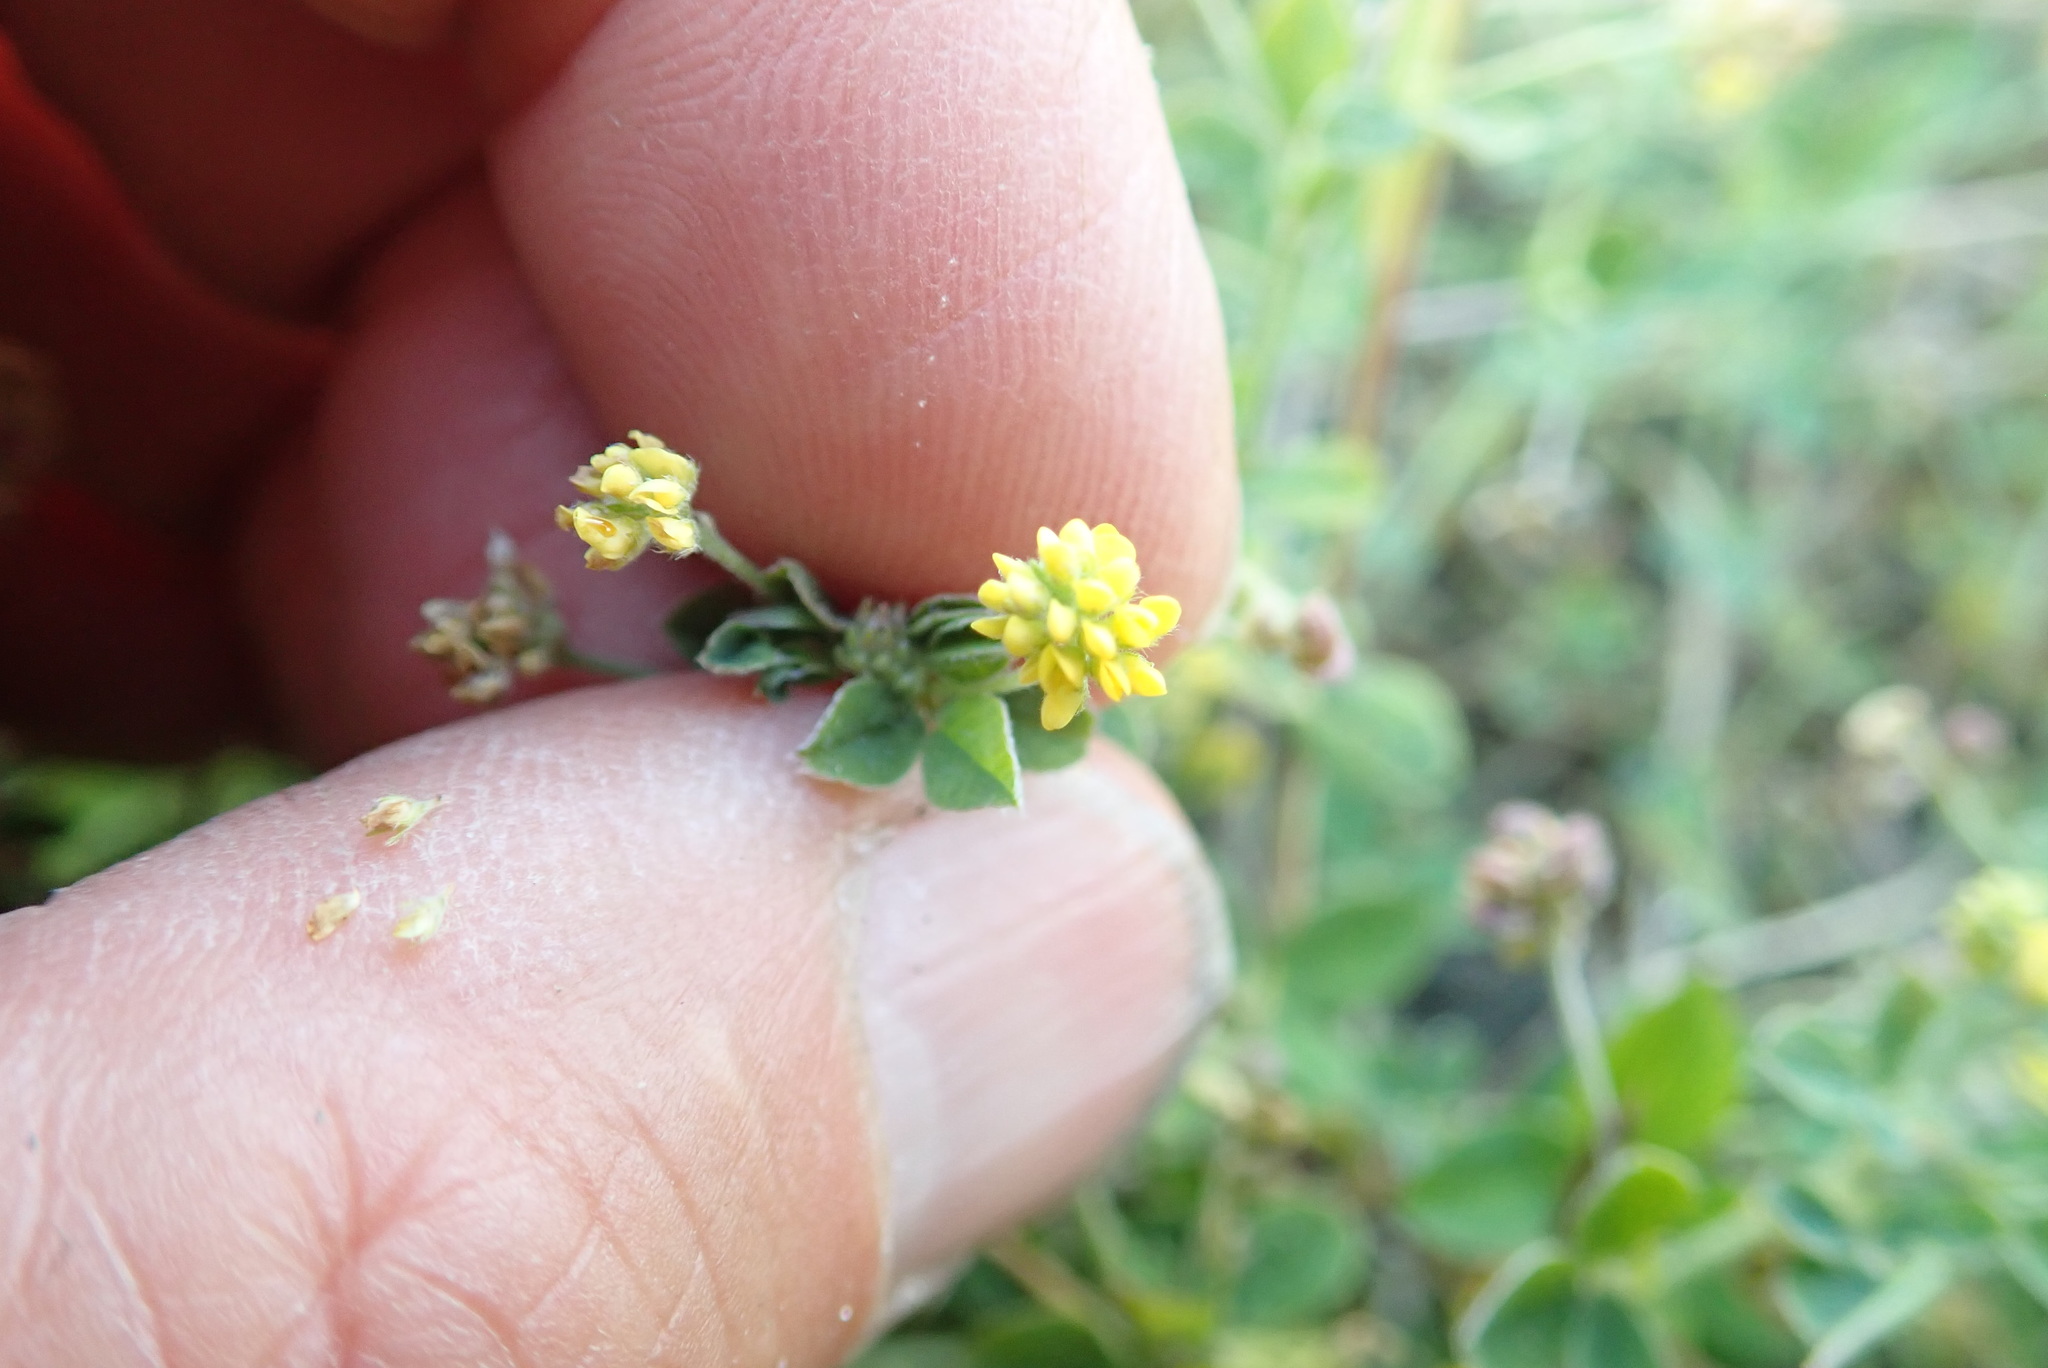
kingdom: Plantae
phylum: Tracheophyta
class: Magnoliopsida
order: Fabales
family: Fabaceae
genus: Medicago
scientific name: Medicago lupulina
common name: Black medick
